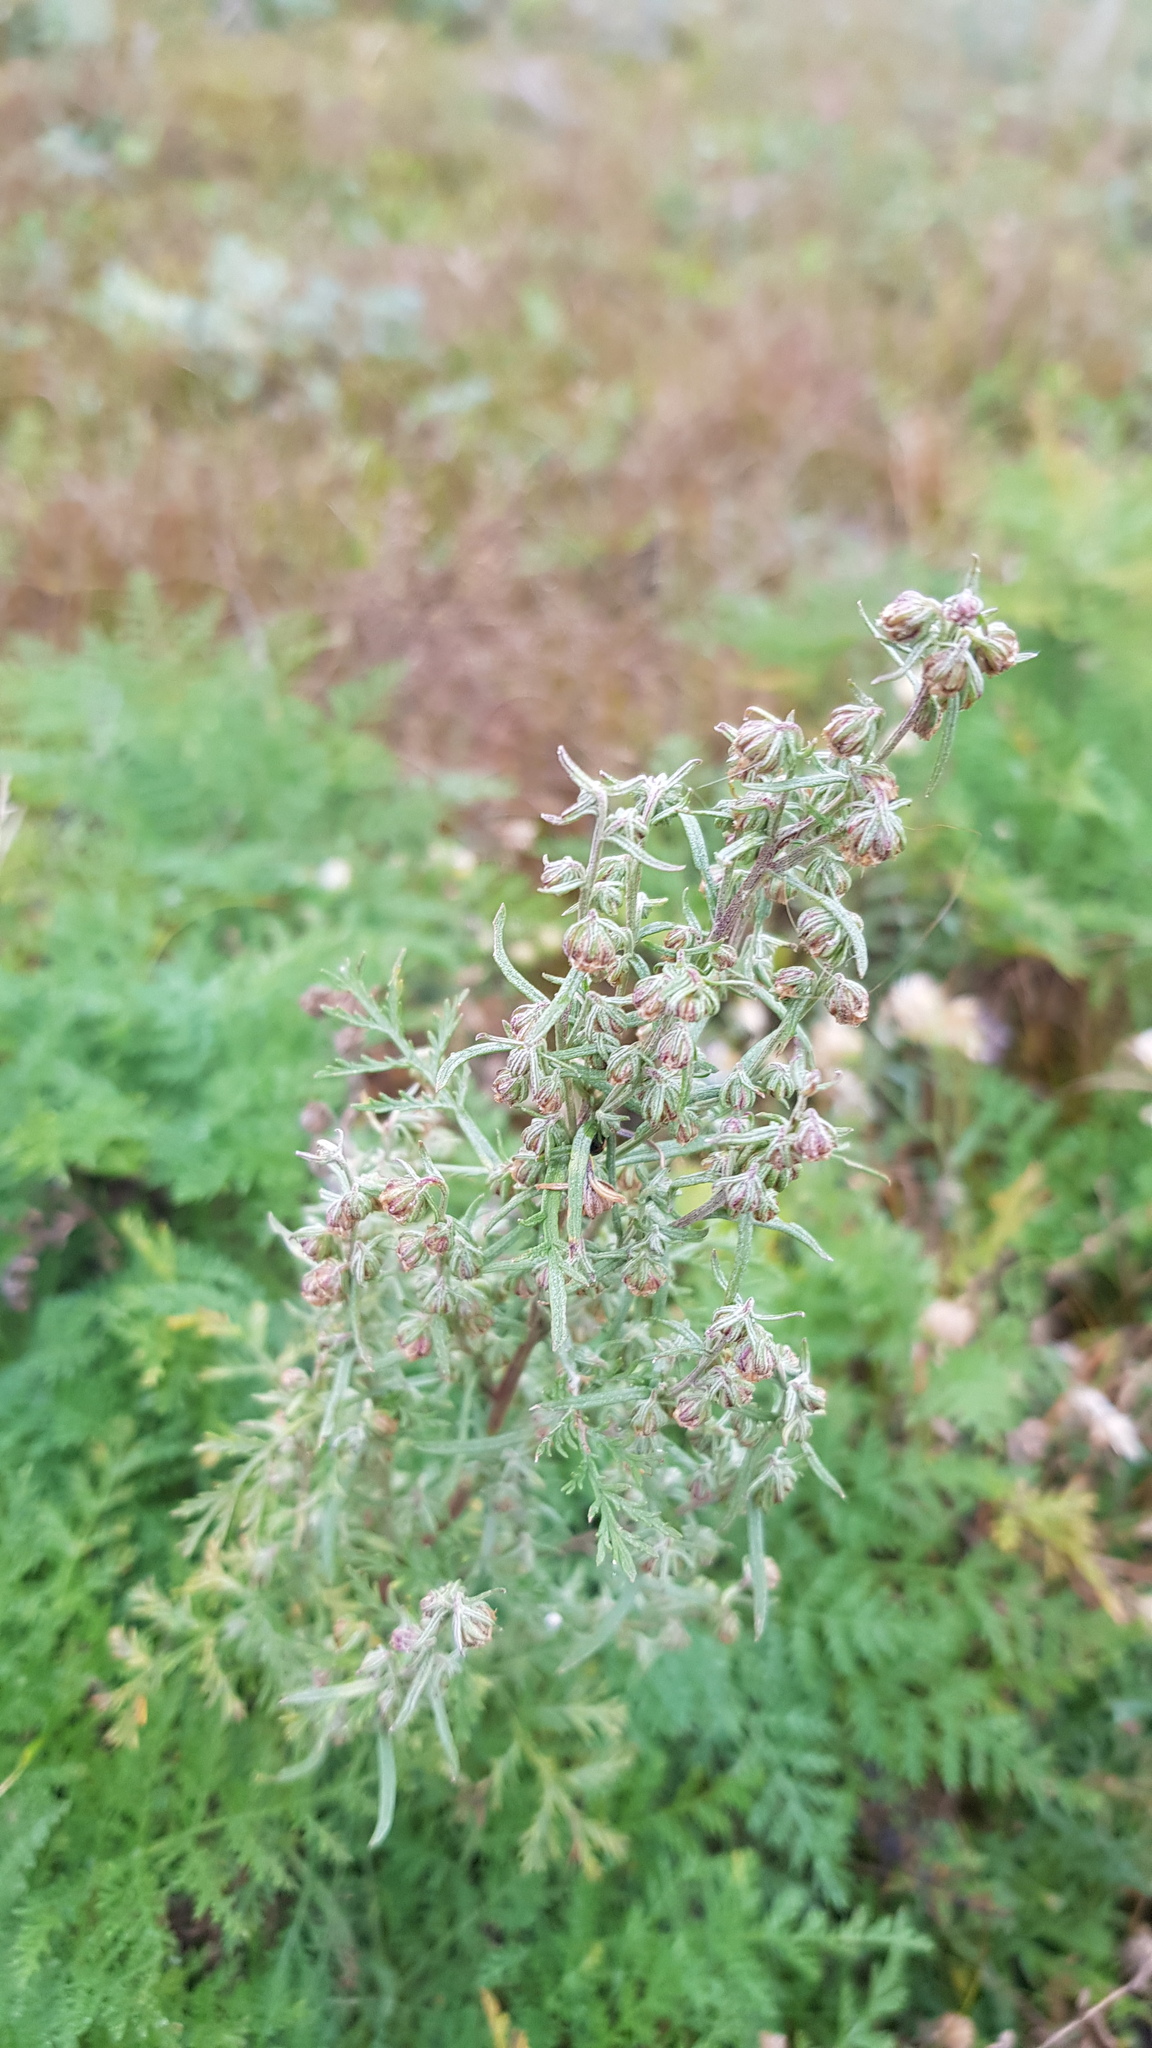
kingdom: Plantae
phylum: Tracheophyta
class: Magnoliopsida
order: Asterales
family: Asteraceae
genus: Artemisia
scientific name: Artemisia gmelinii
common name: Gmelin's wormwood
